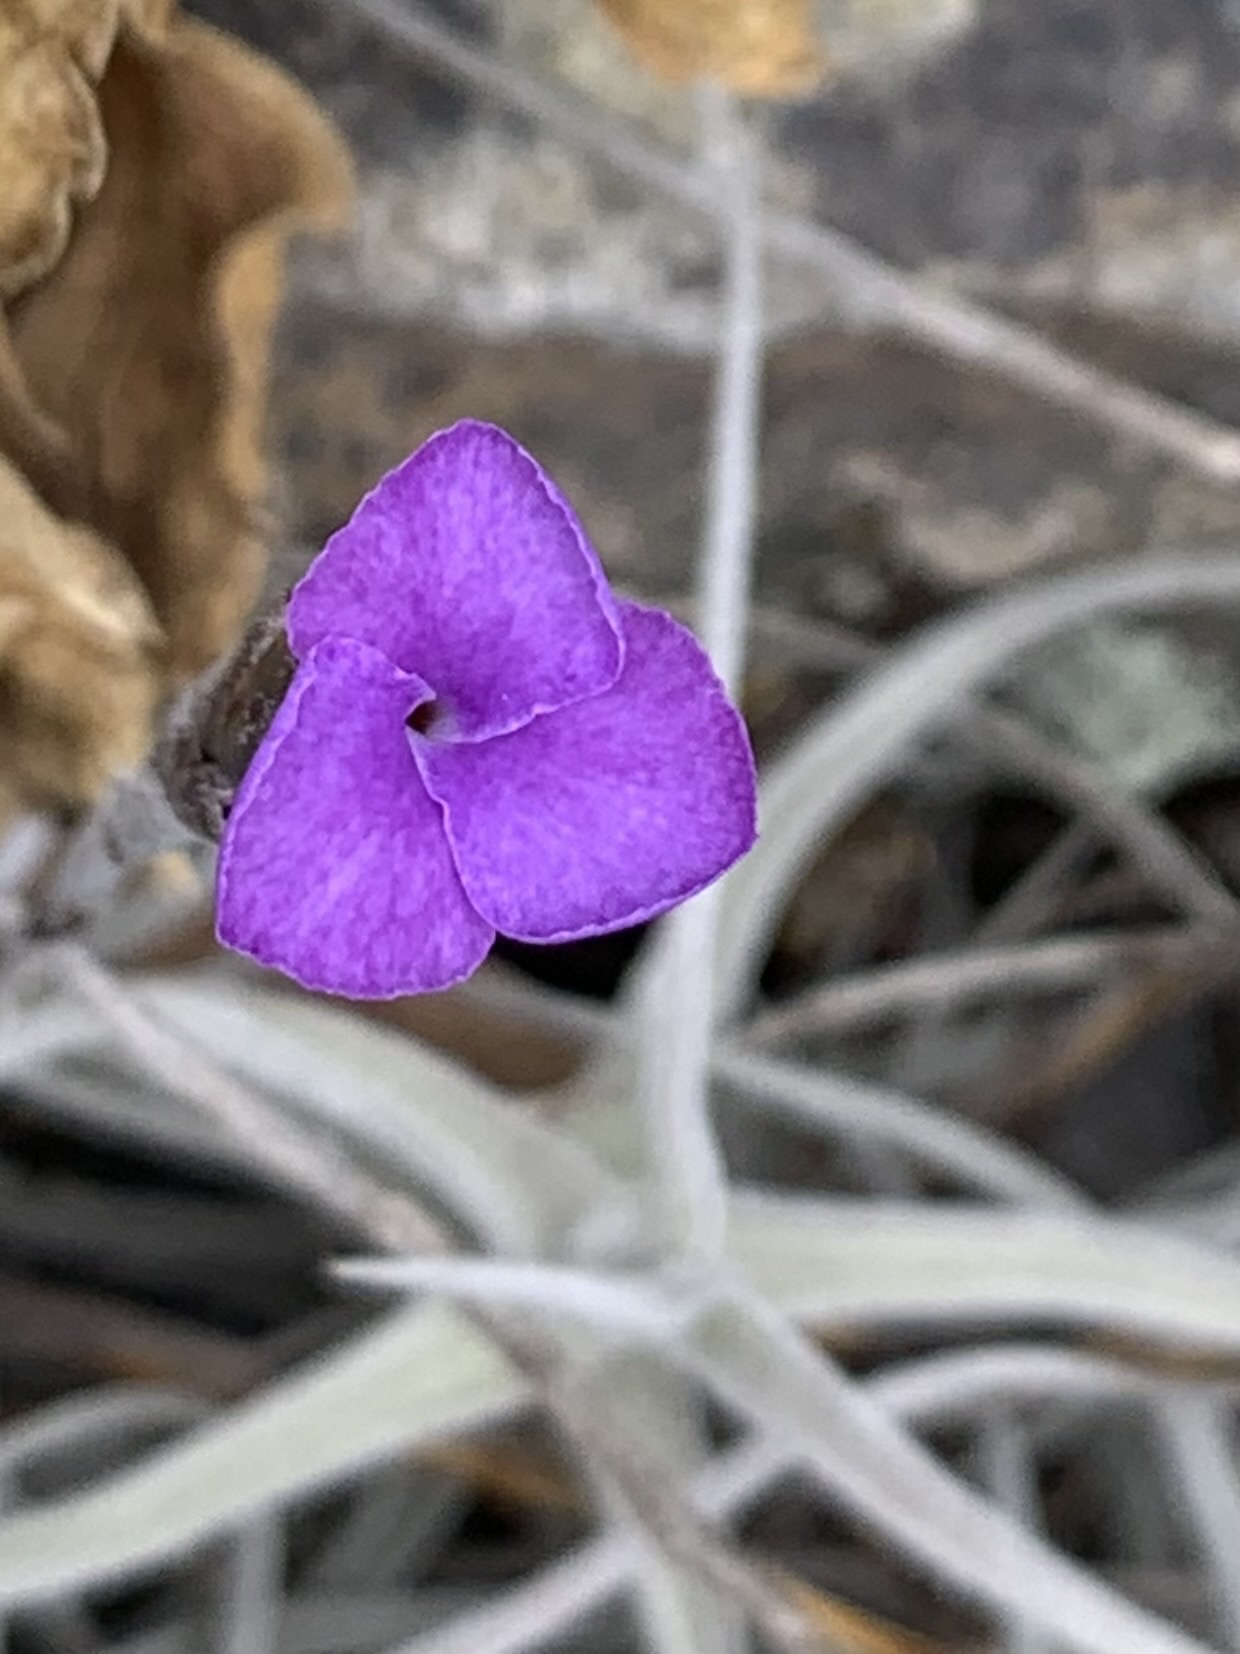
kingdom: Plantae
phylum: Tracheophyta
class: Liliopsida
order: Poales
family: Bromeliaceae
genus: Tillandsia
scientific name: Tillandsia paleacea
